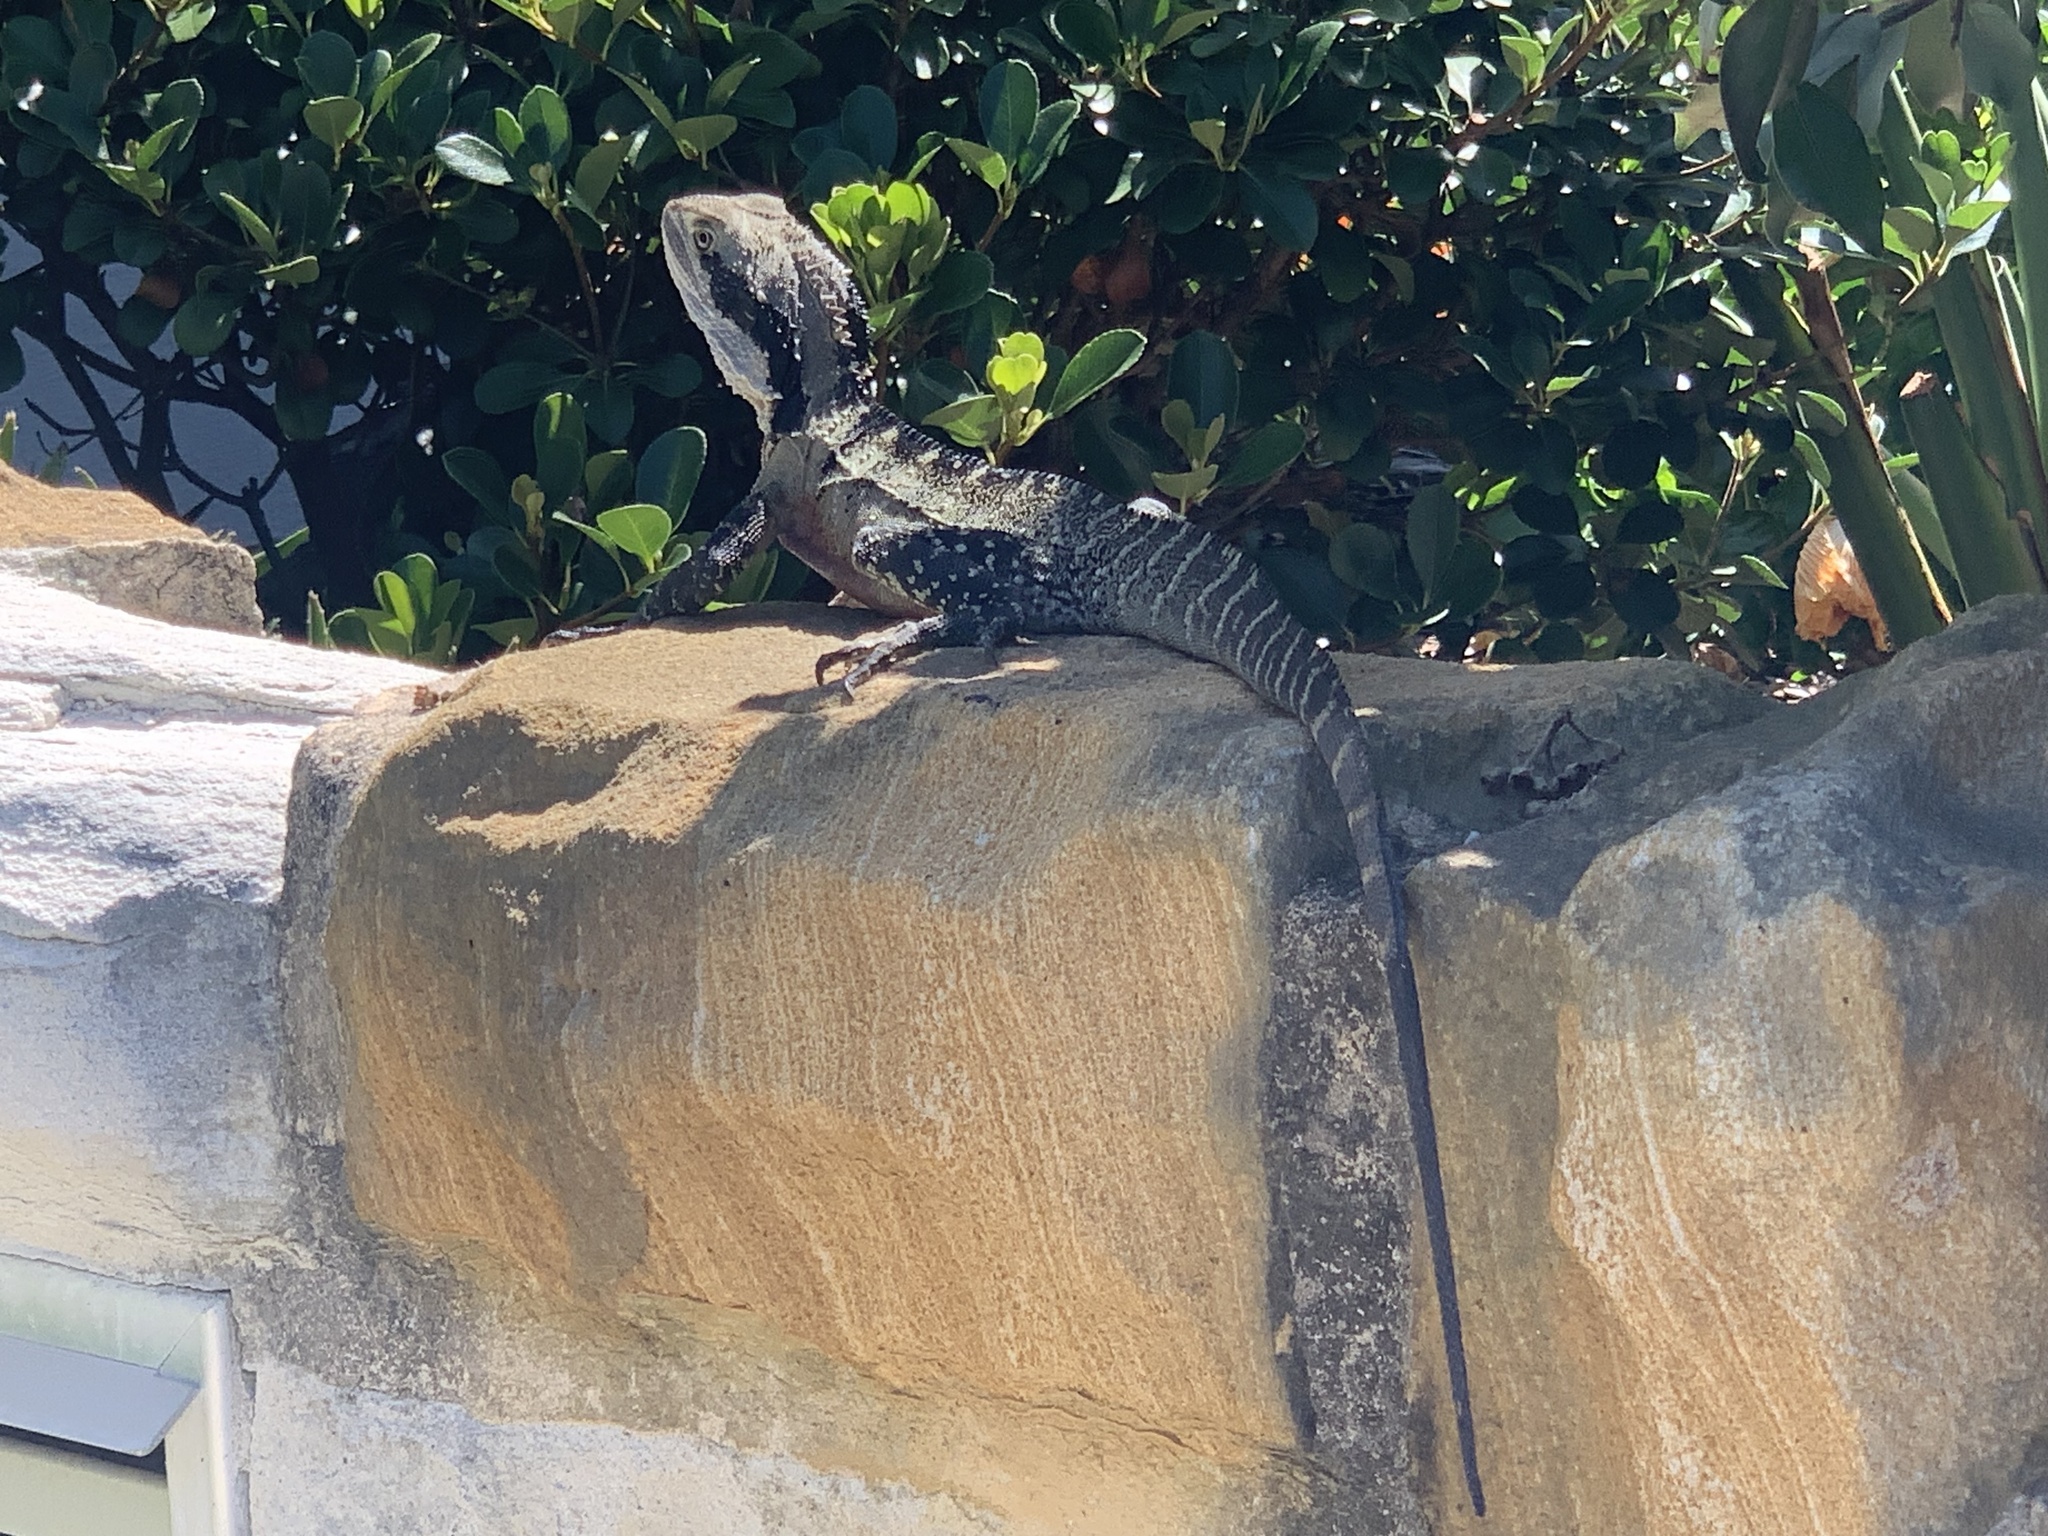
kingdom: Animalia
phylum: Chordata
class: Squamata
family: Agamidae
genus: Intellagama
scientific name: Intellagama lesueurii
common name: Eastern water dragon
